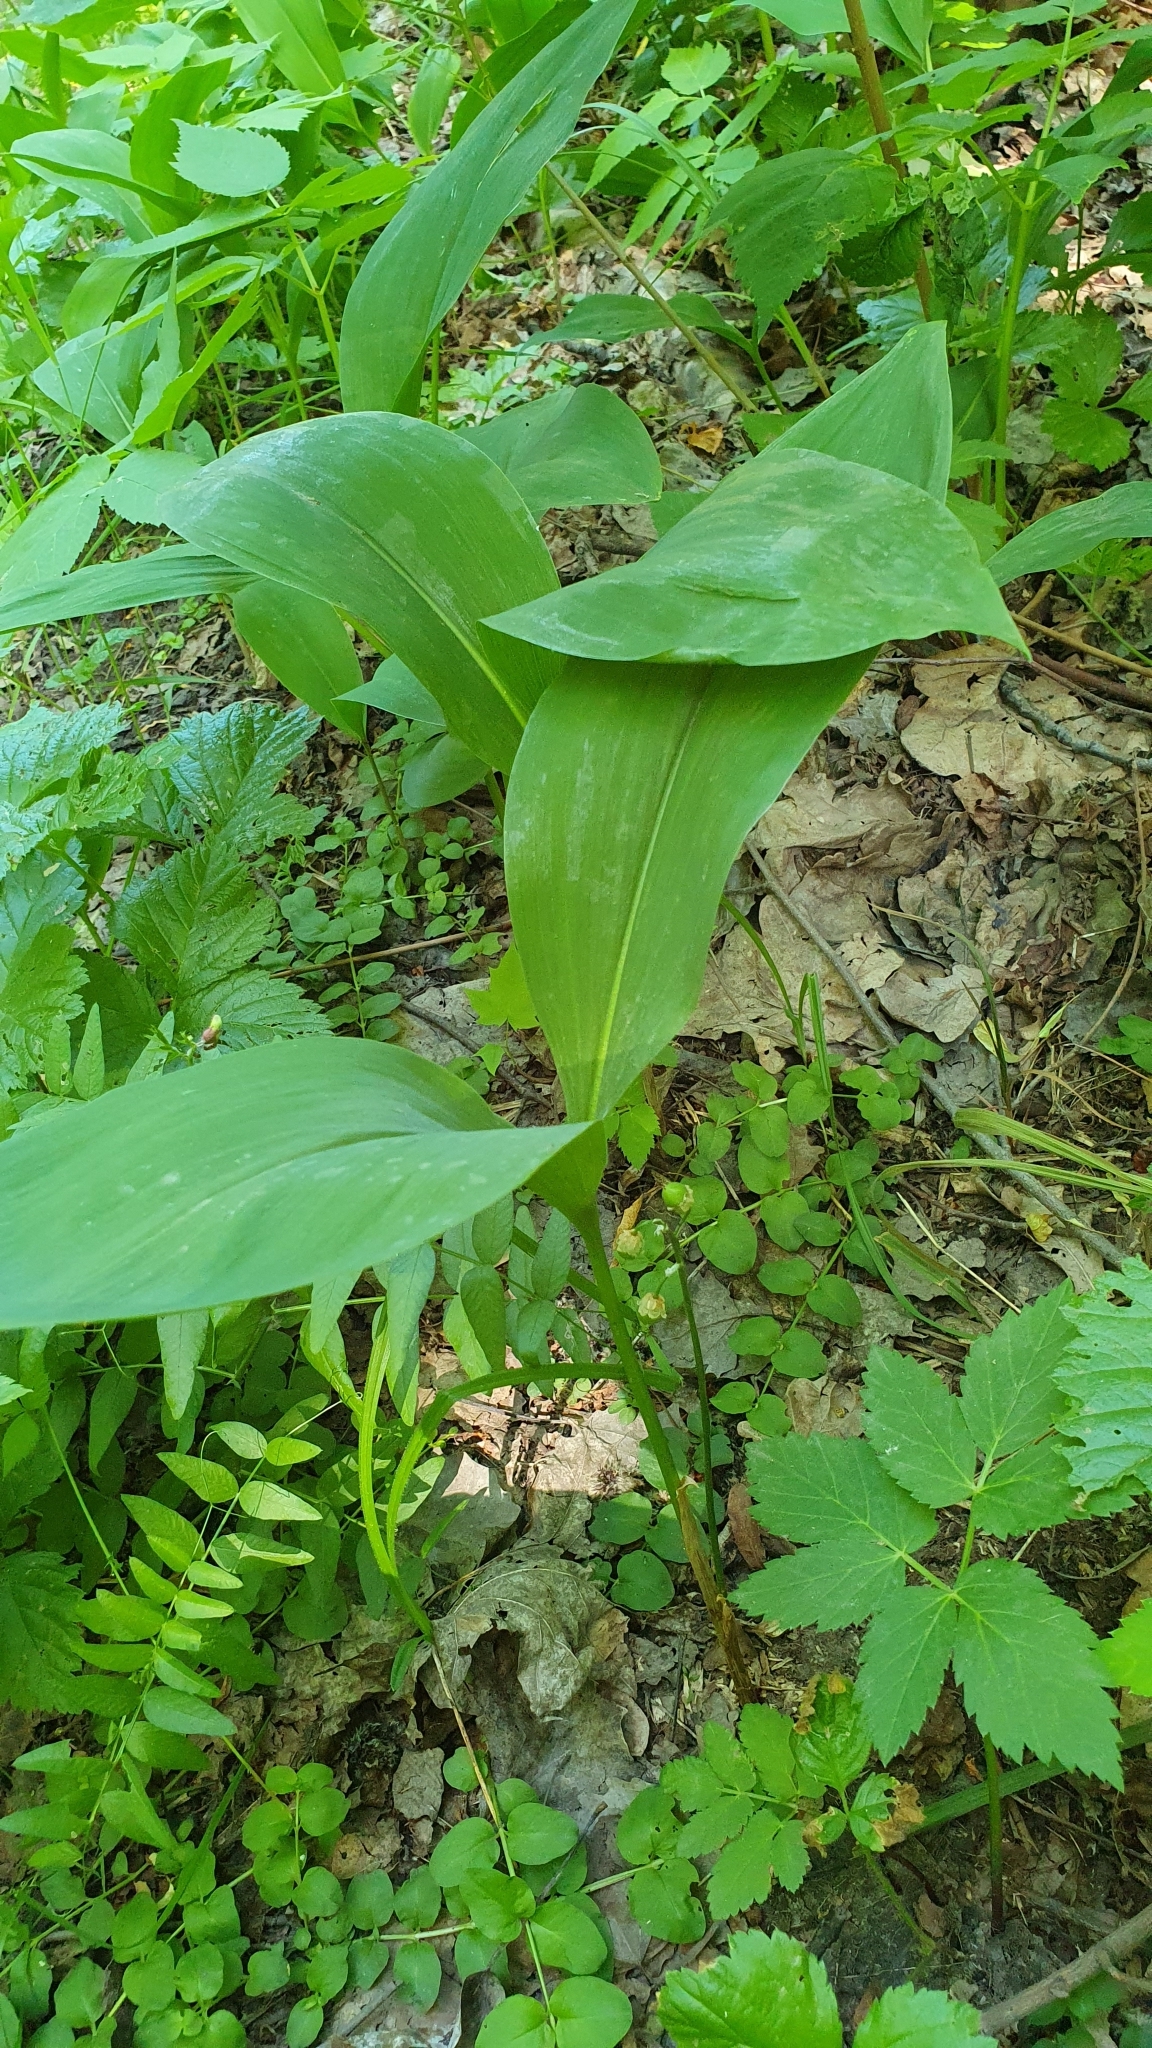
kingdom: Plantae
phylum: Tracheophyta
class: Liliopsida
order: Asparagales
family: Asparagaceae
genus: Convallaria
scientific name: Convallaria majalis
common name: Lily-of-the-valley
